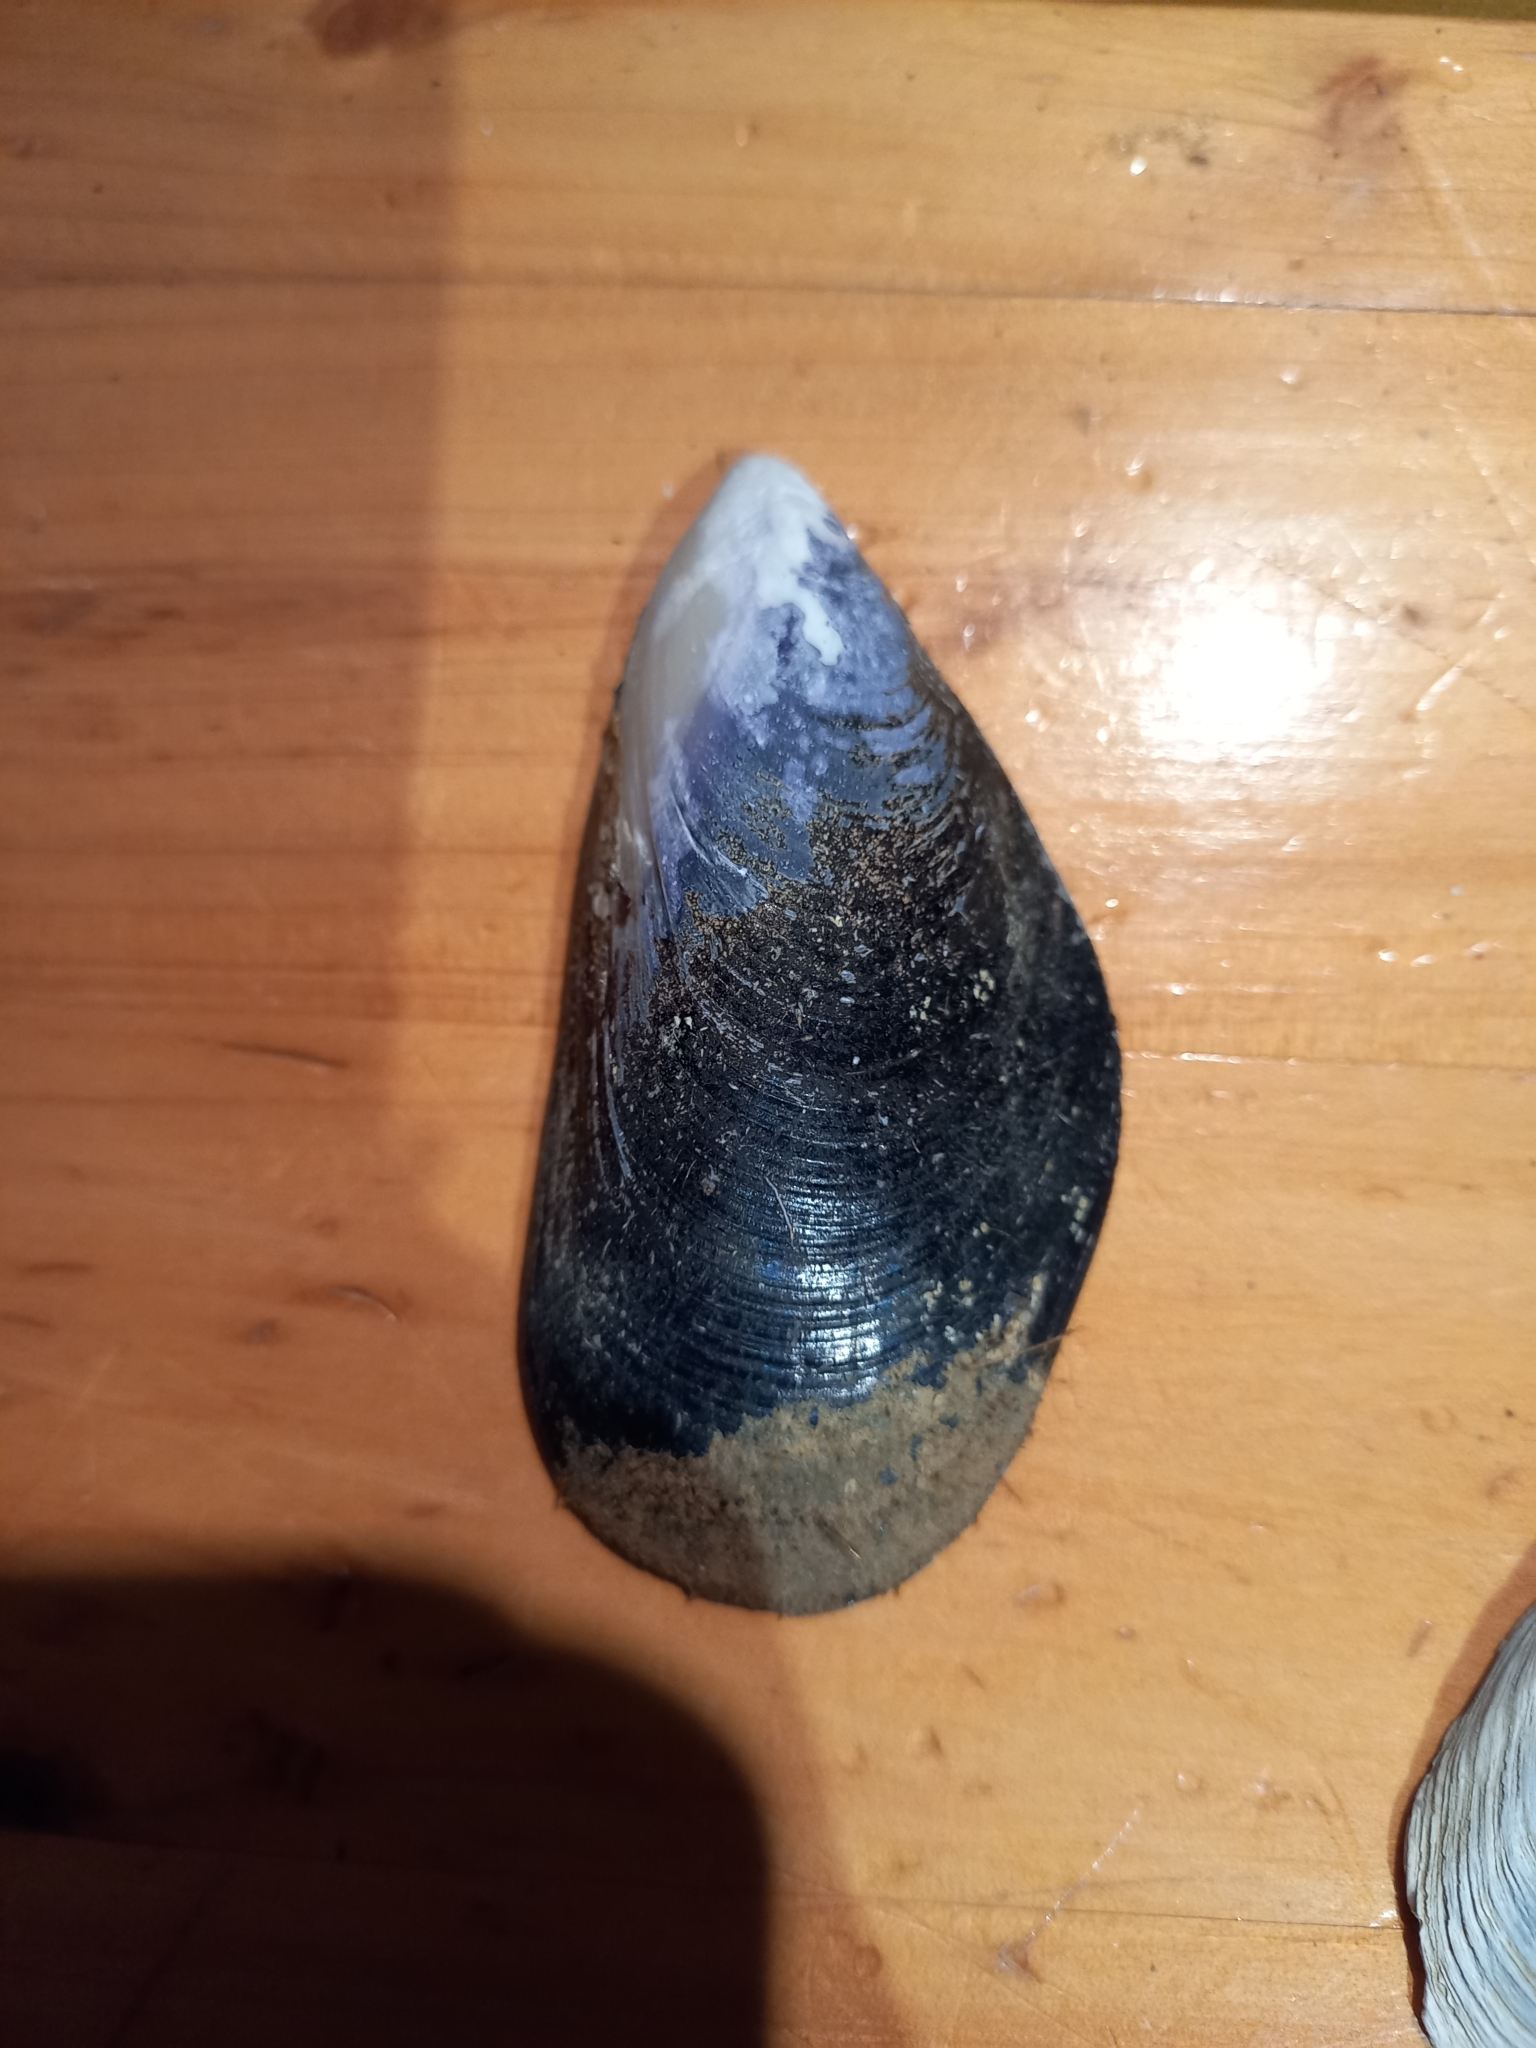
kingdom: Animalia
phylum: Mollusca
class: Bivalvia
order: Mytilida
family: Mytilidae
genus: Mytilus
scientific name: Mytilus planulatus
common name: Australian mussel
